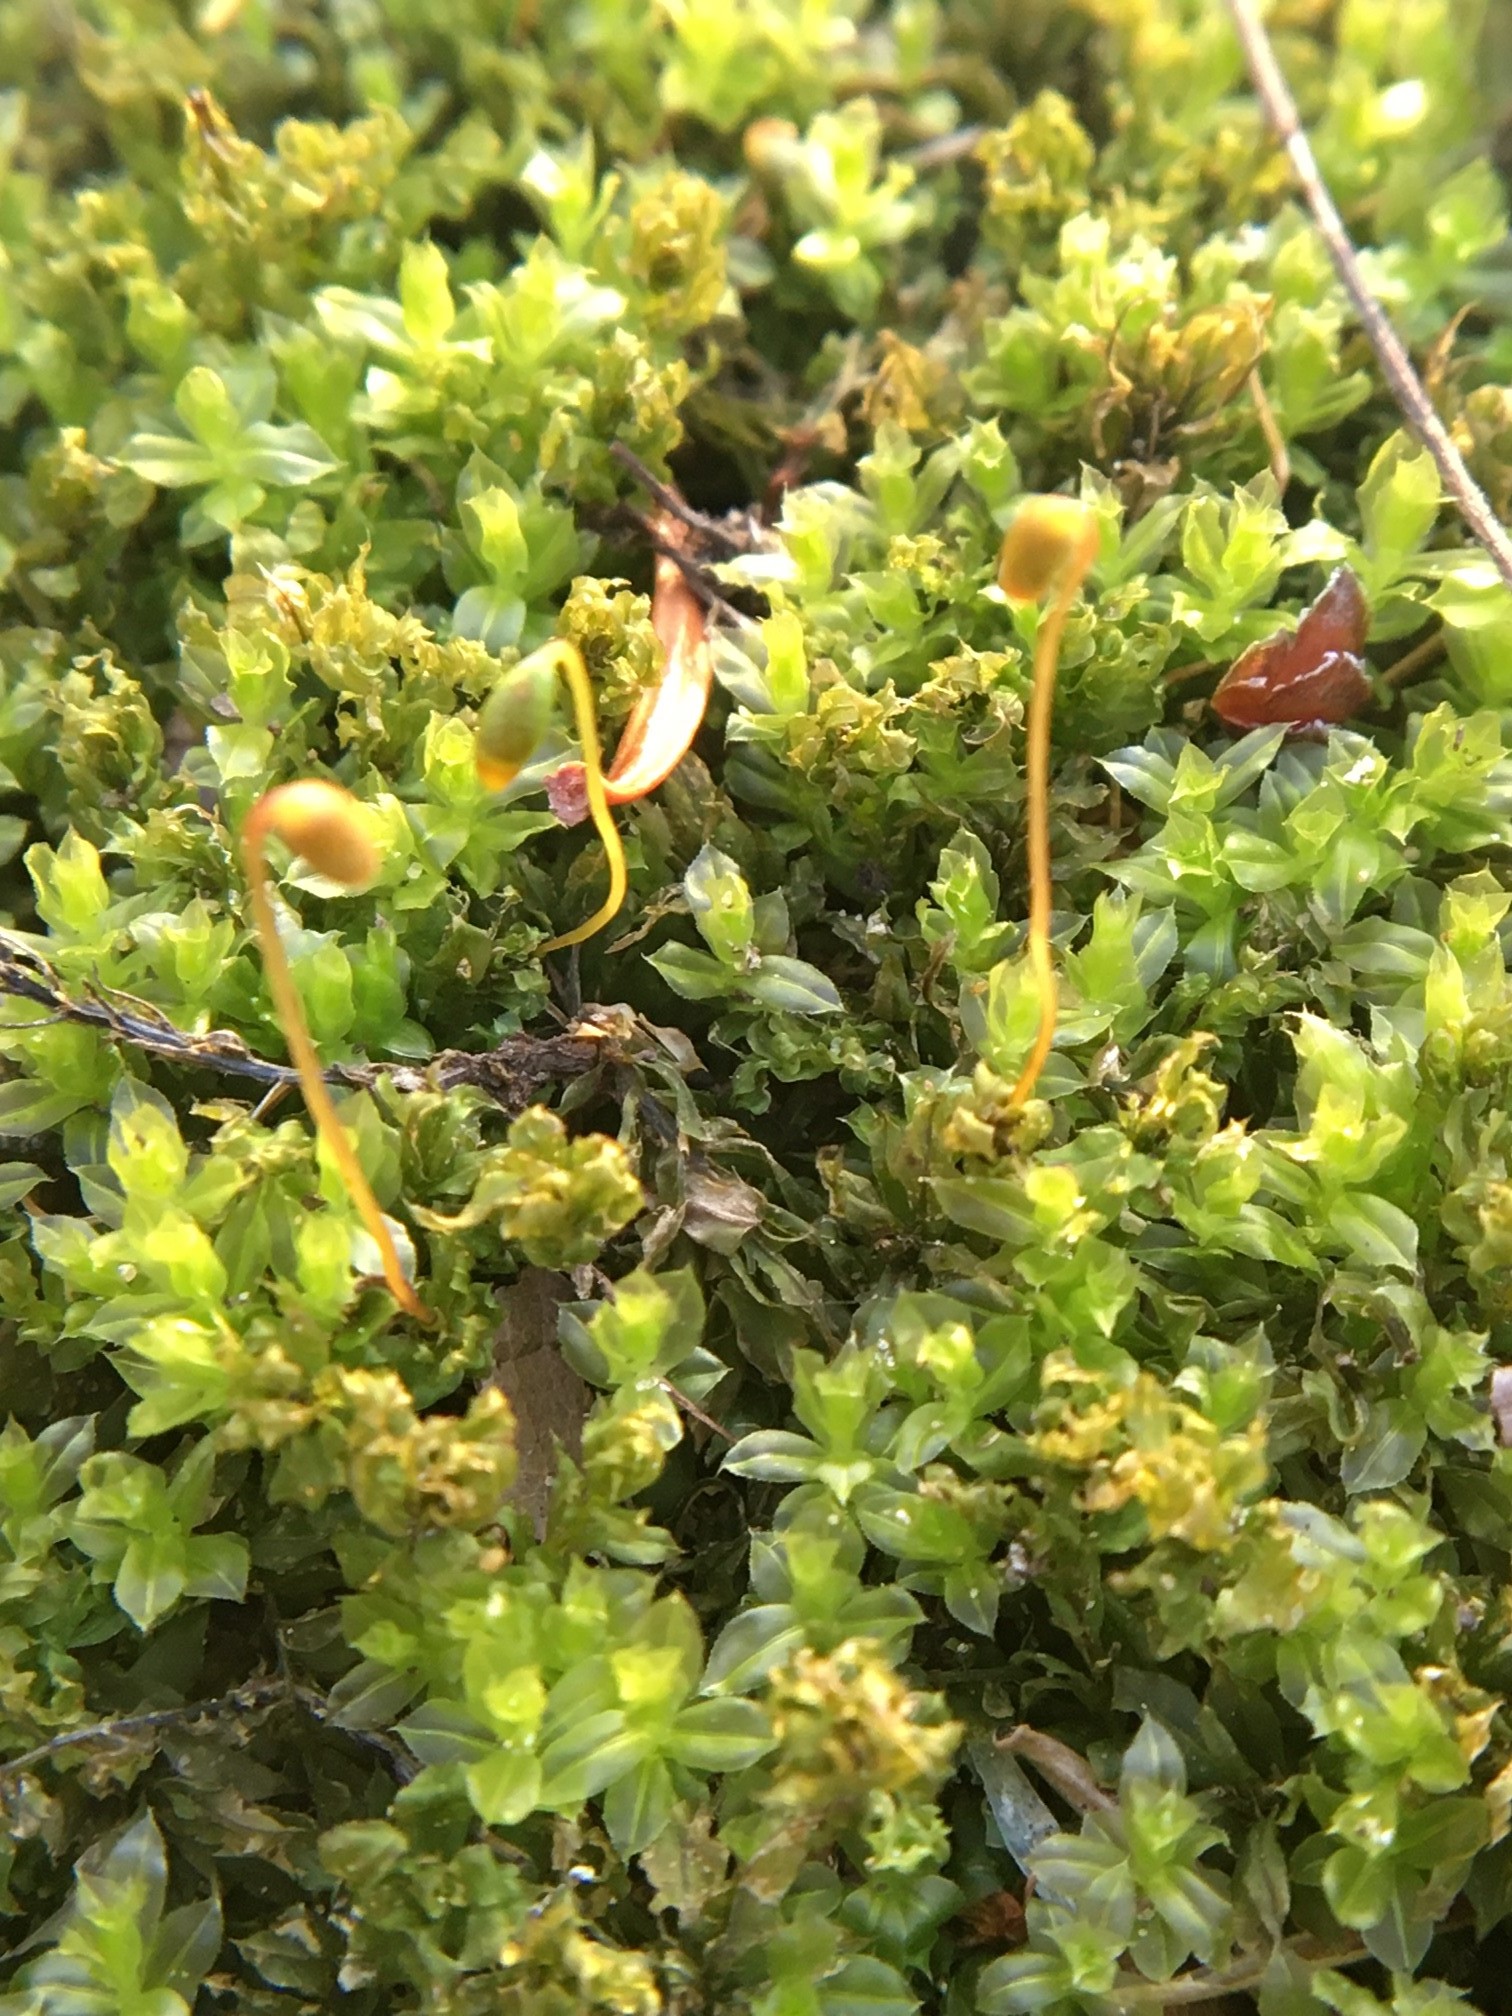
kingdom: Plantae
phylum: Bryophyta
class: Bryopsida
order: Bryales
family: Mniaceae
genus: Plagiomnium
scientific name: Plagiomnium cuspidatum
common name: Woodsy leafy moss
